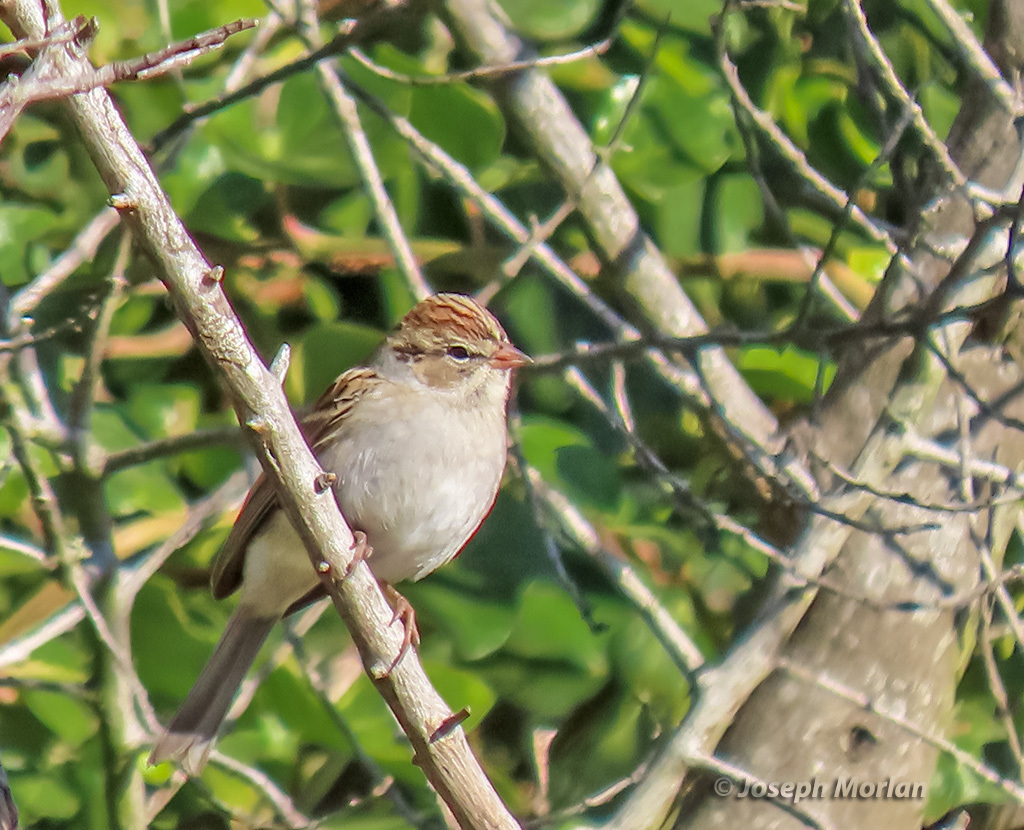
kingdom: Animalia
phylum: Chordata
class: Aves
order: Passeriformes
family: Passerellidae
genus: Spizella
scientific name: Spizella passerina
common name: Chipping sparrow
